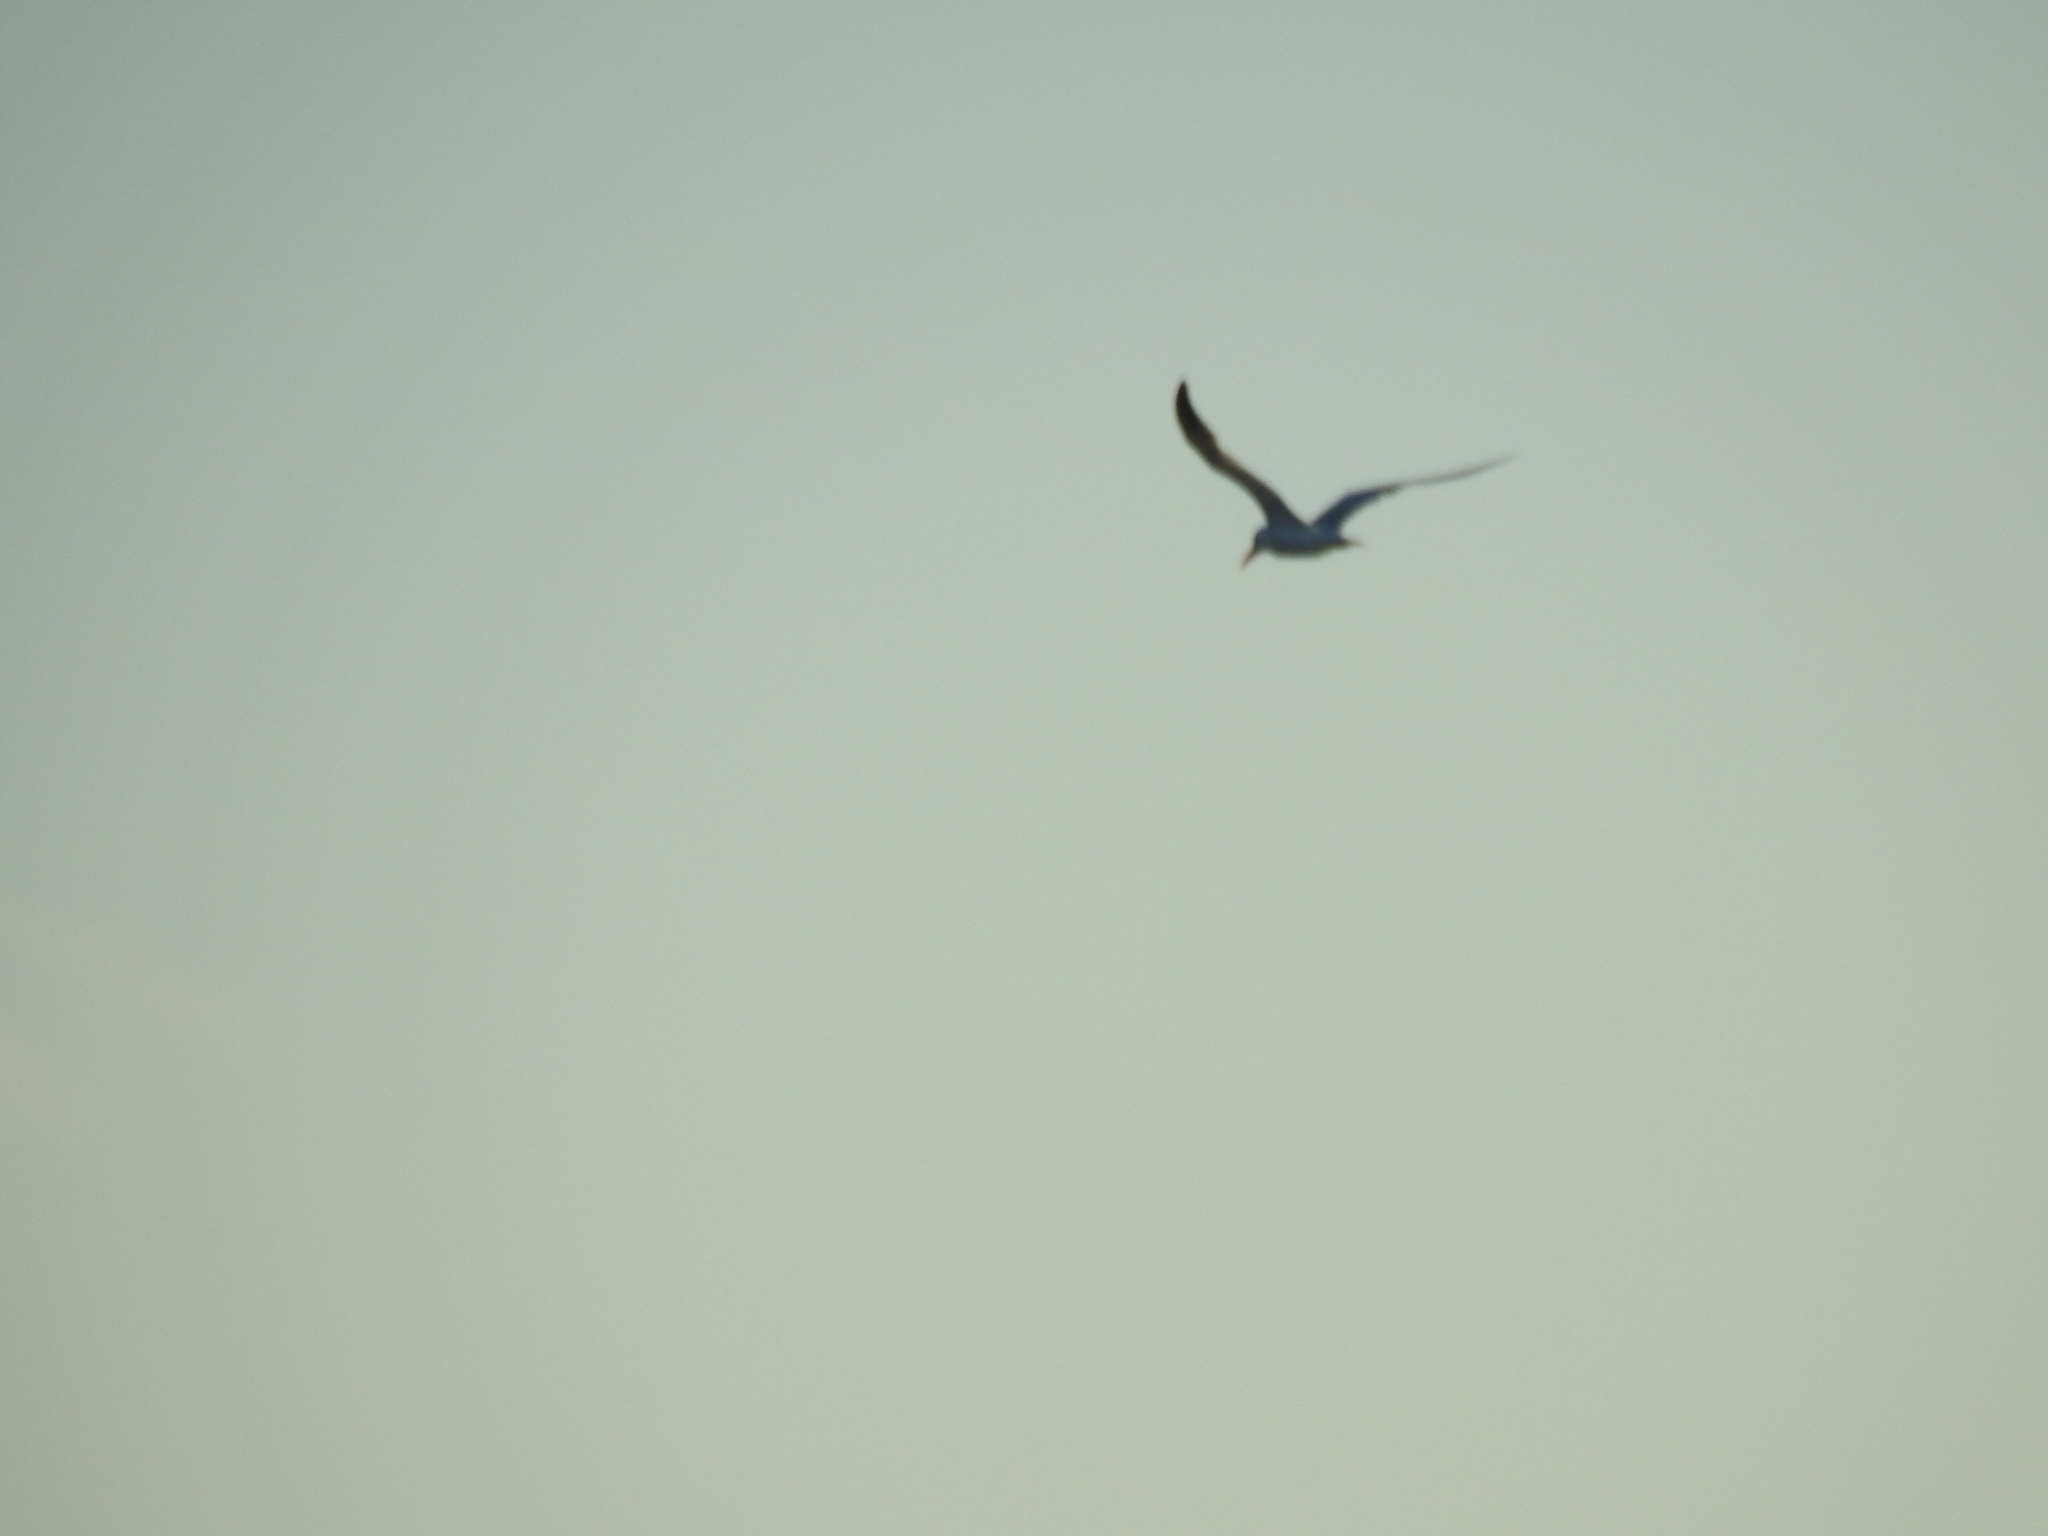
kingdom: Animalia
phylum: Chordata
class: Aves
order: Charadriiformes
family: Laridae
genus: Hydroprogne
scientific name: Hydroprogne caspia
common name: Caspian tern
